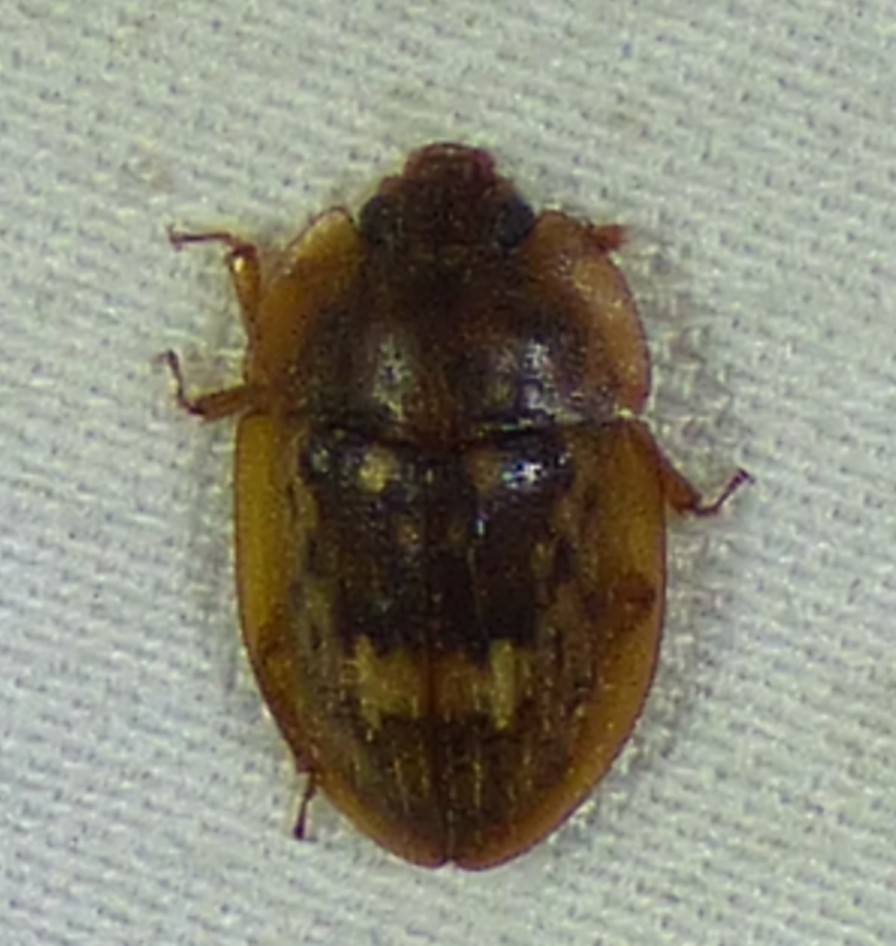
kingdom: Animalia
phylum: Arthropoda
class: Insecta
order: Coleoptera
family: Nitidulidae
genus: Lobiopa
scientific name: Lobiopa insularis
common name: Sap beetle
